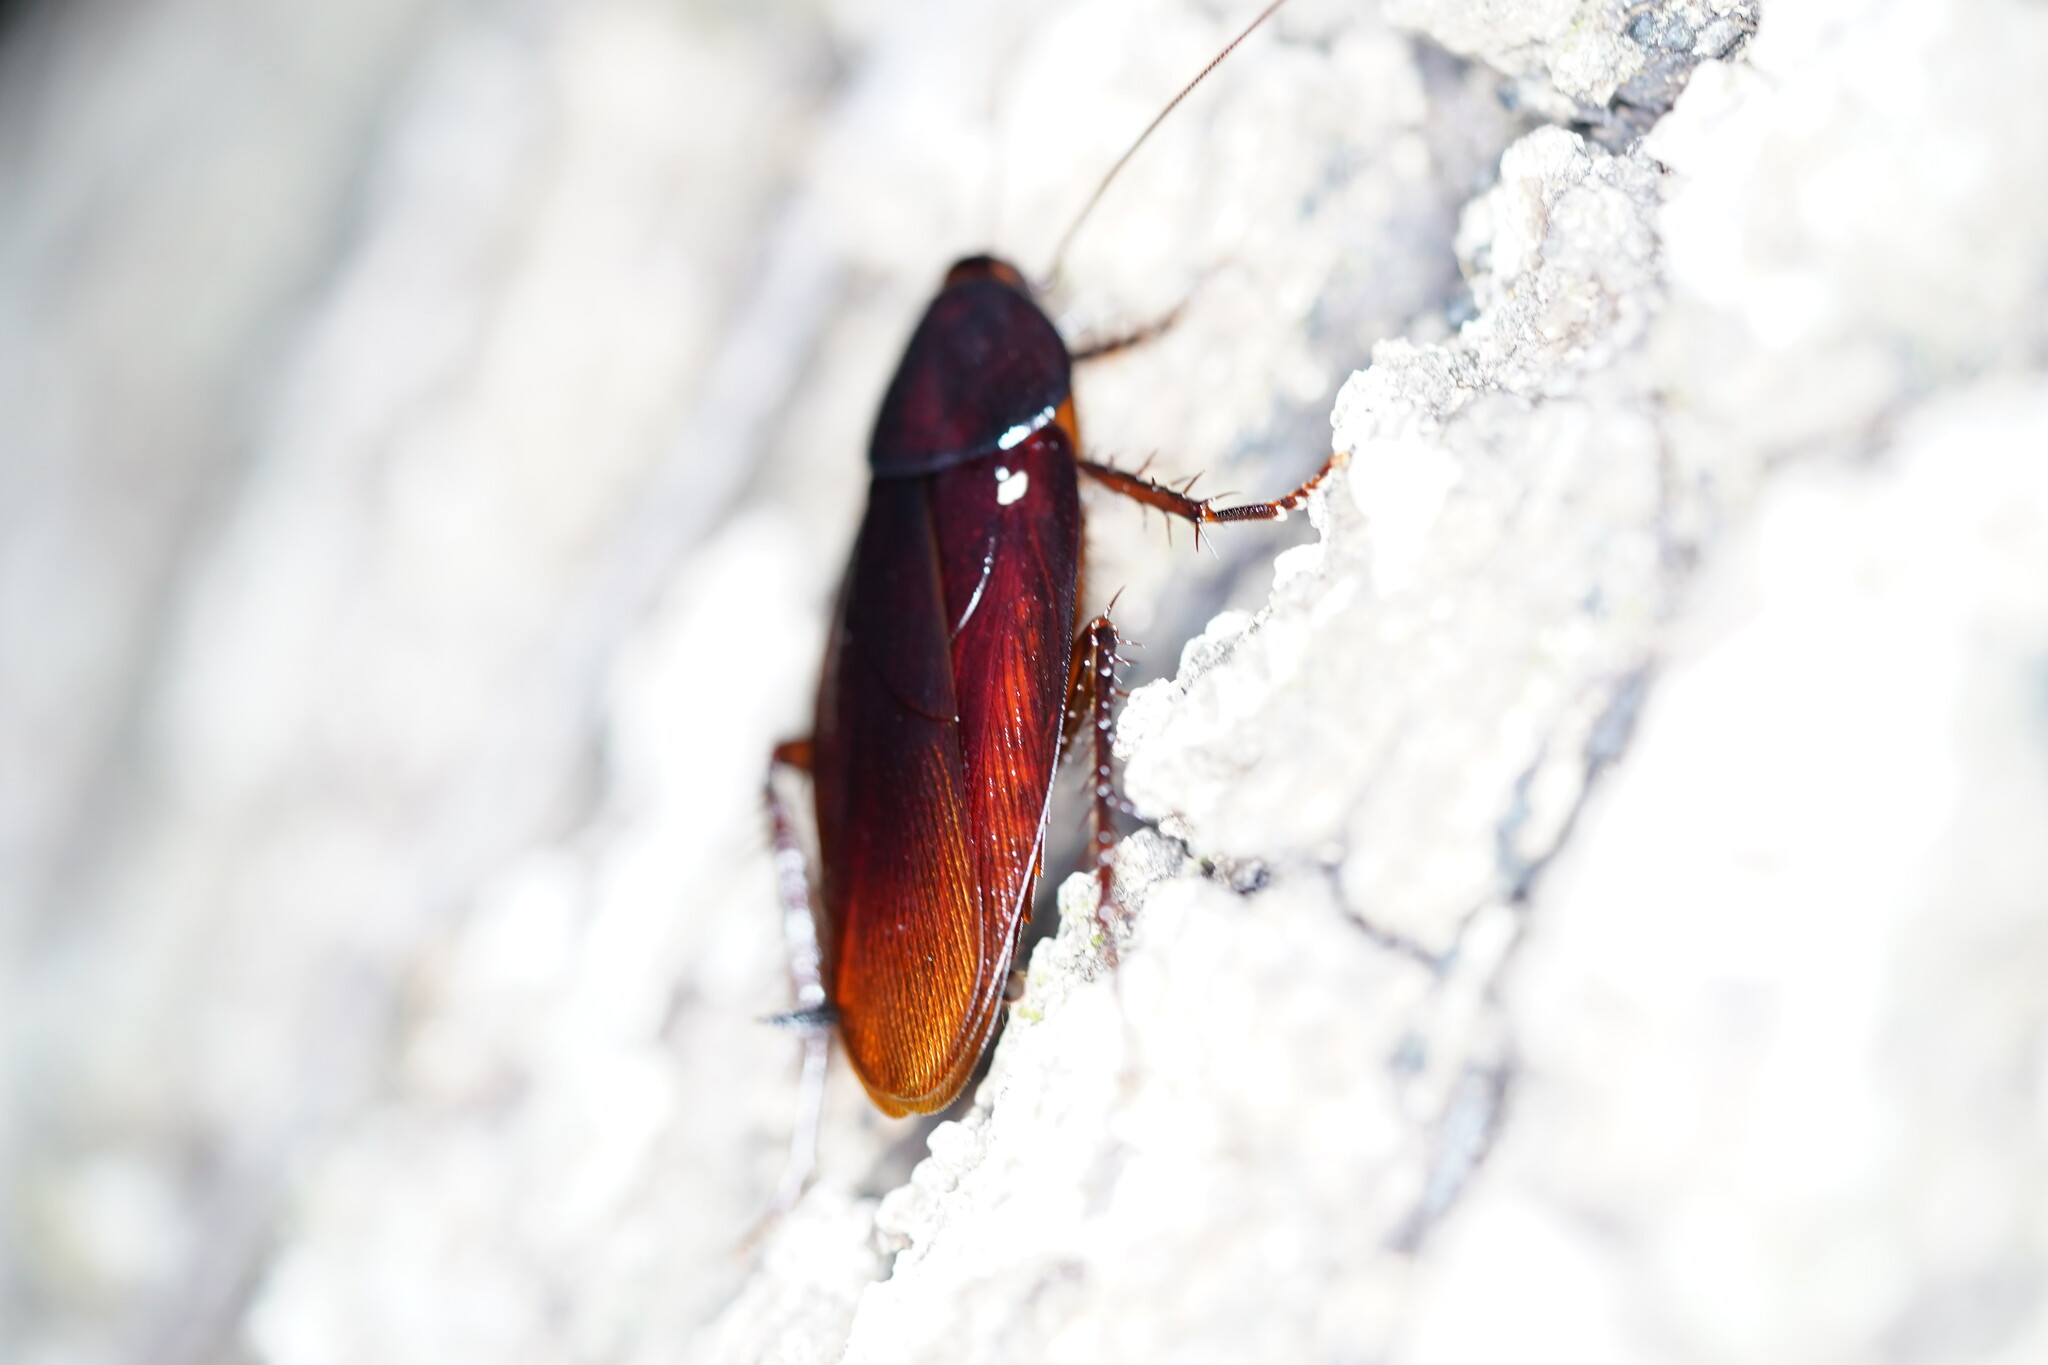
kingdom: Animalia
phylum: Arthropoda
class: Insecta
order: Blattodea
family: Blattidae
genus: Periplaneta
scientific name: Periplaneta fuliginosa
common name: Smokeybrown cockroad
